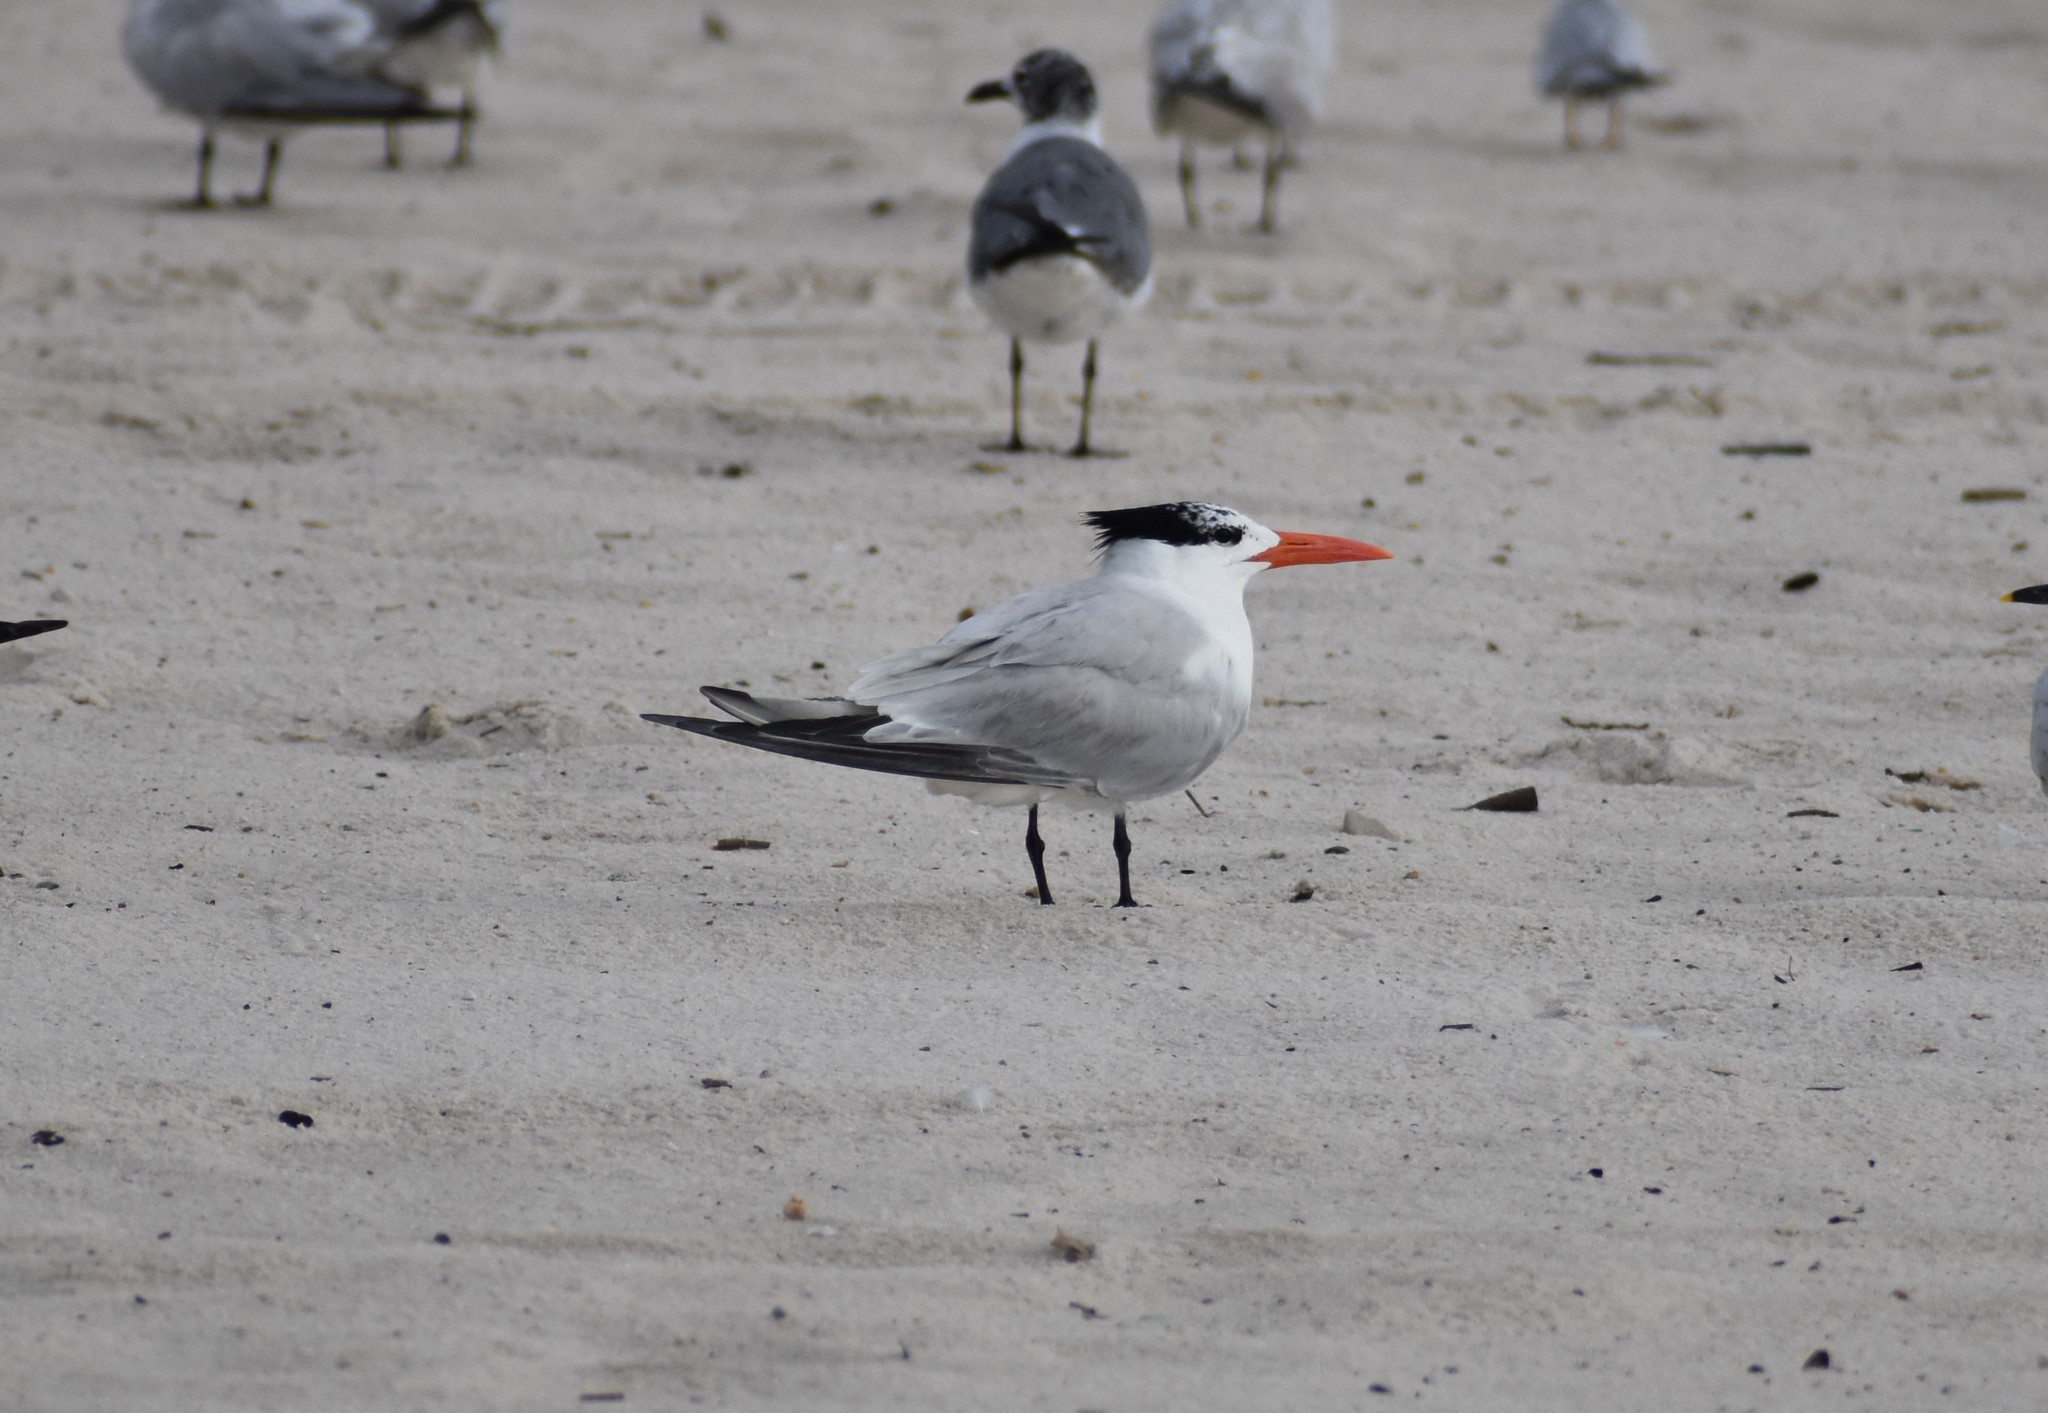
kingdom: Animalia
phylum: Chordata
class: Aves
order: Charadriiformes
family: Laridae
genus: Thalasseus
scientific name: Thalasseus maximus
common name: Royal tern
